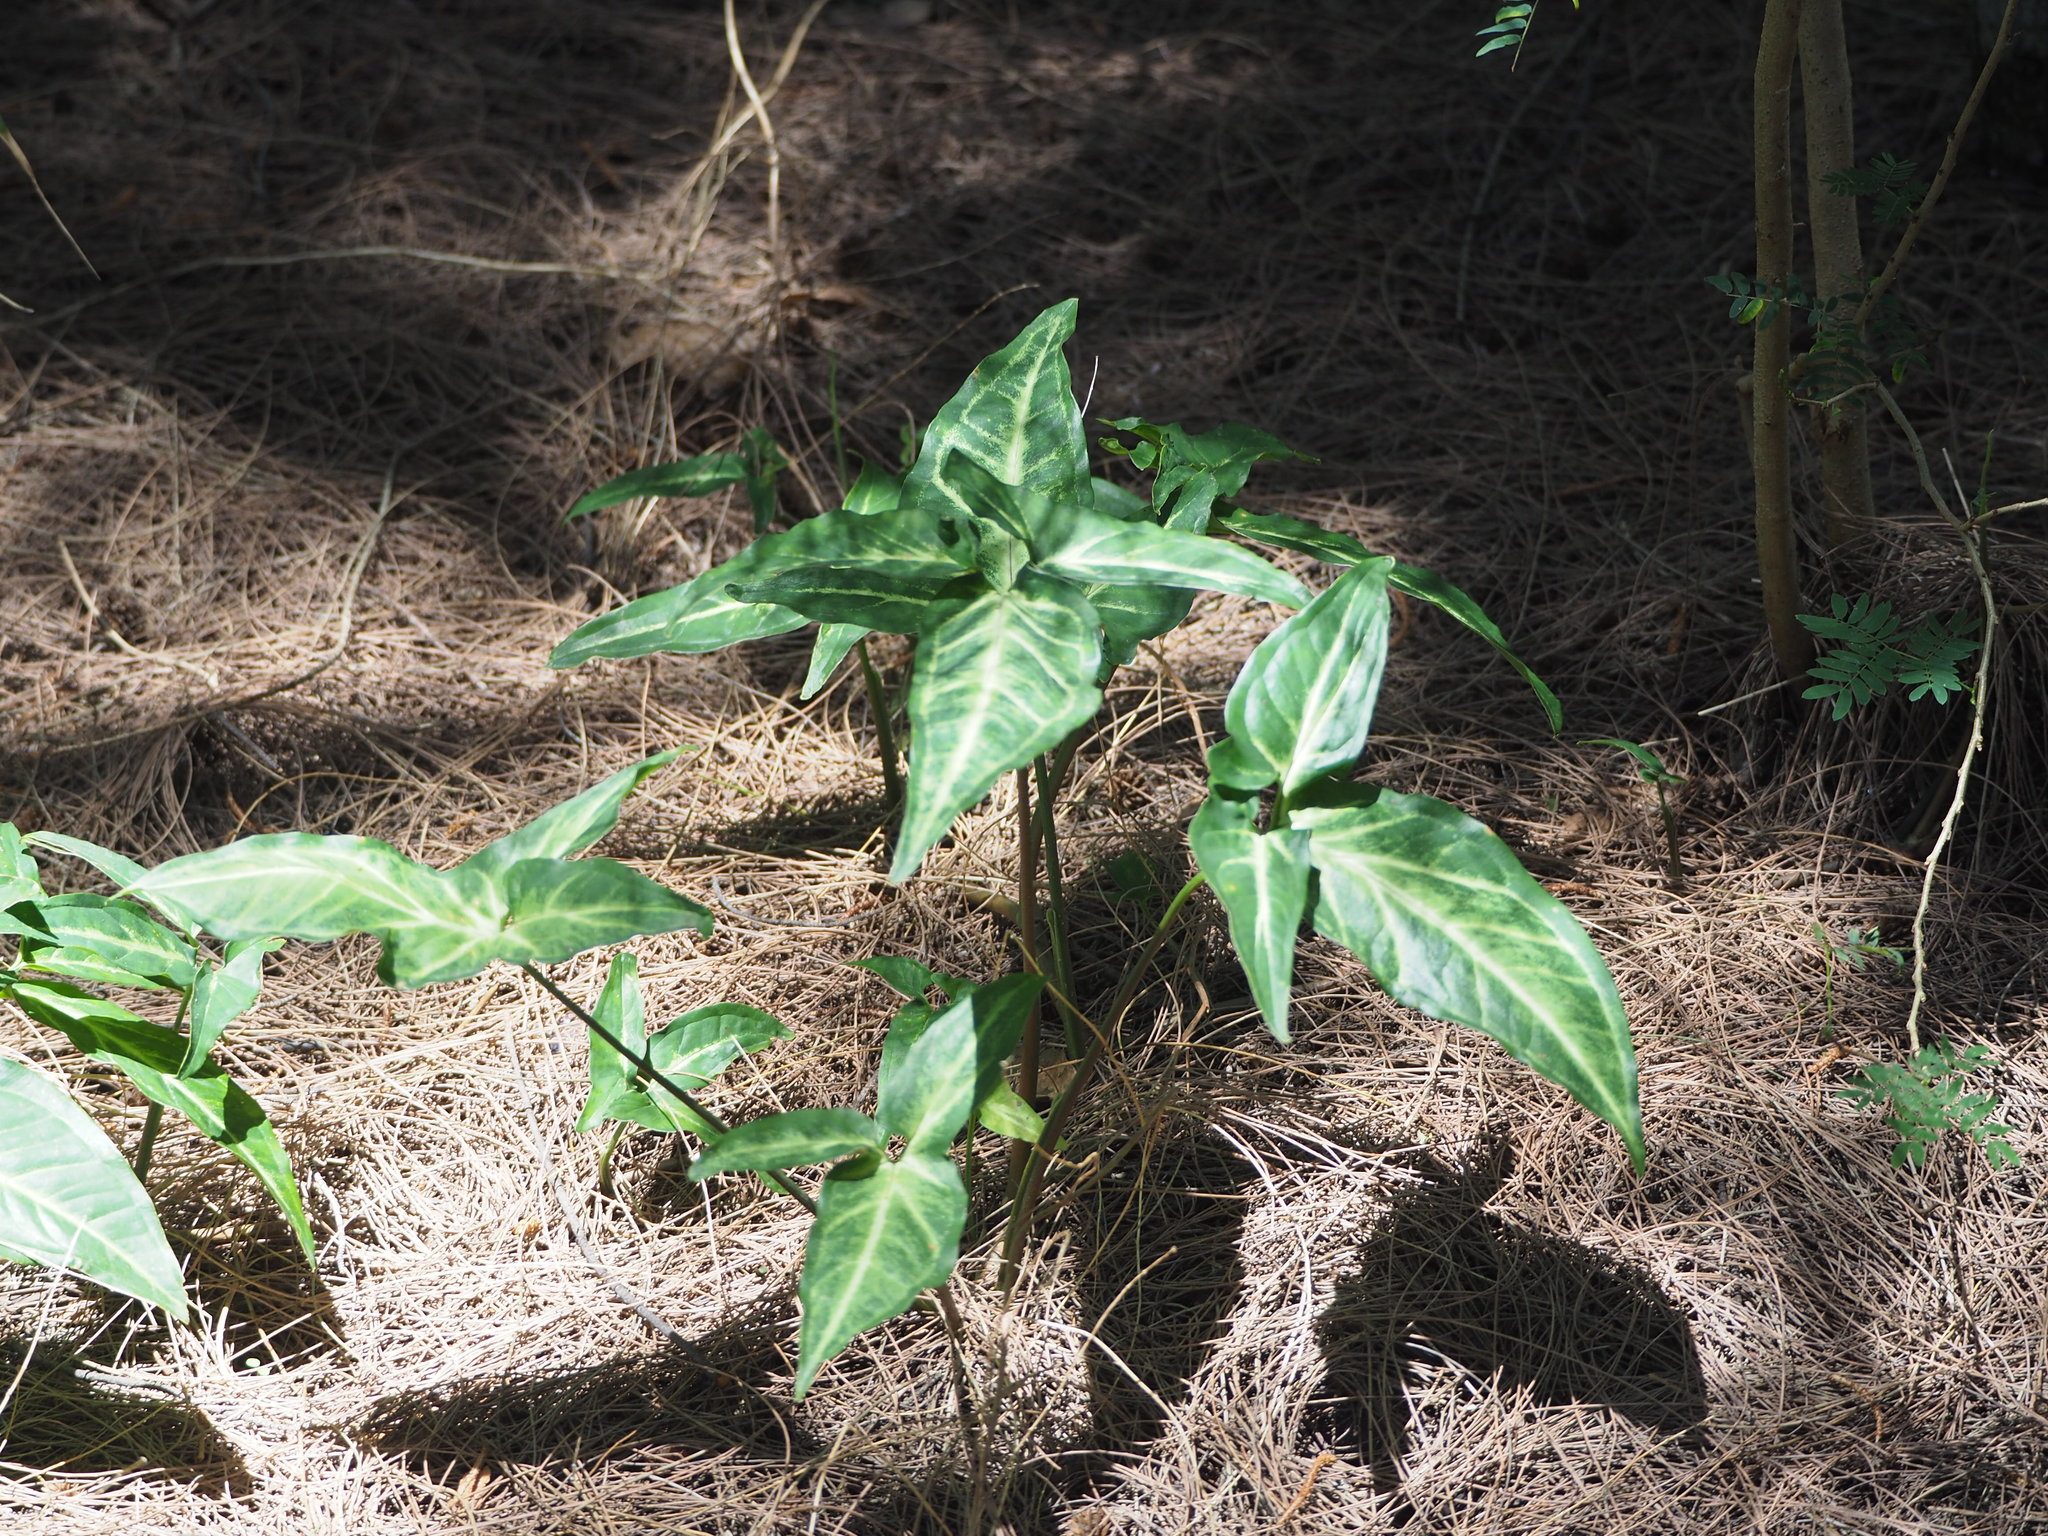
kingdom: Plantae
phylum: Tracheophyta
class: Liliopsida
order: Alismatales
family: Araceae
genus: Syngonium
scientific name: Syngonium podophyllum
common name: American evergreen
